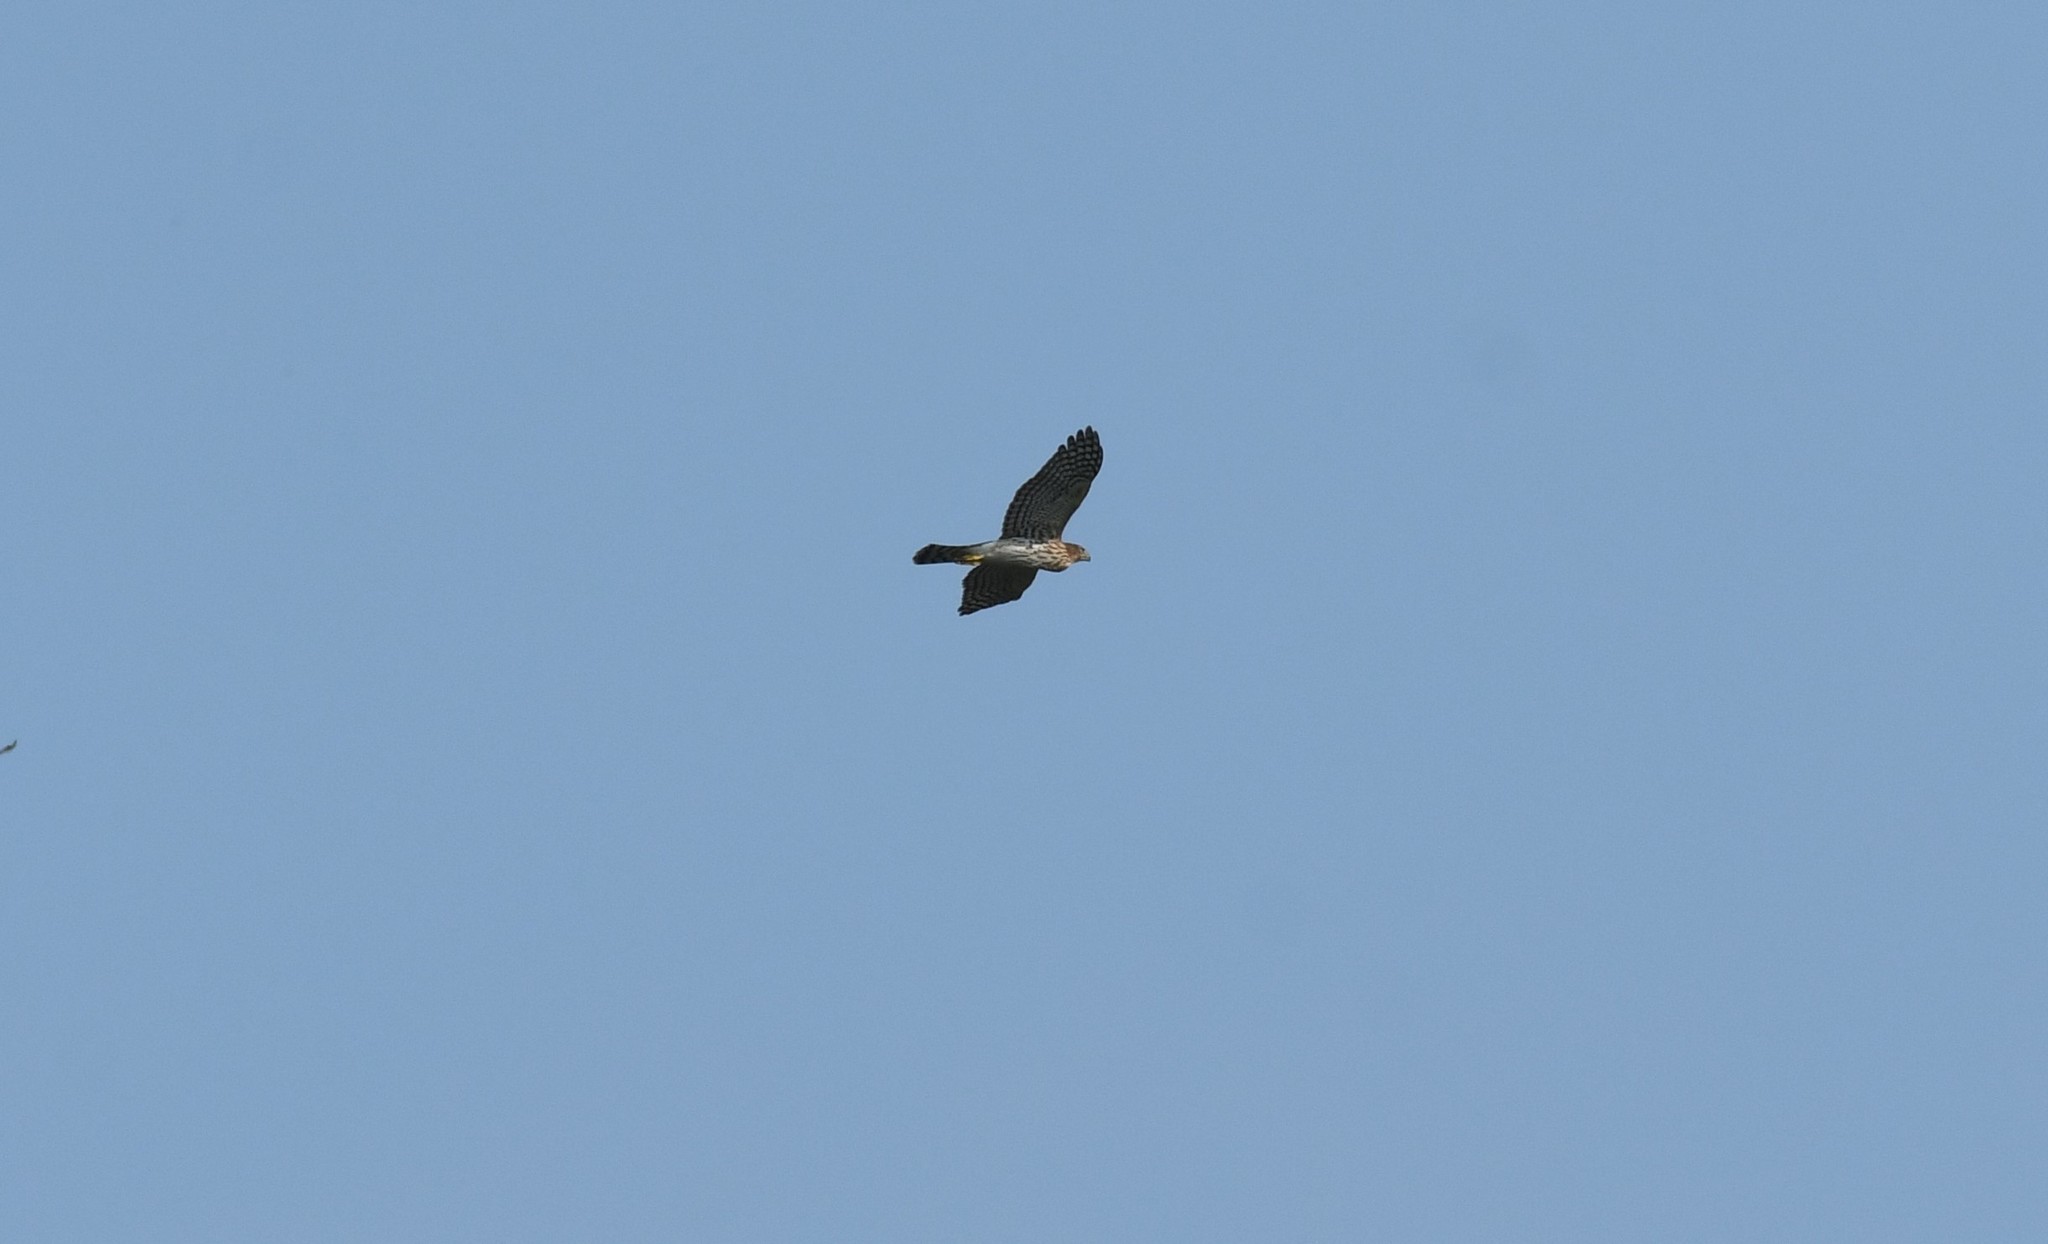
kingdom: Animalia
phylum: Chordata
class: Aves
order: Accipitriformes
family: Accipitridae
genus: Accipiter
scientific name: Accipiter cooperii
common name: Cooper's hawk
